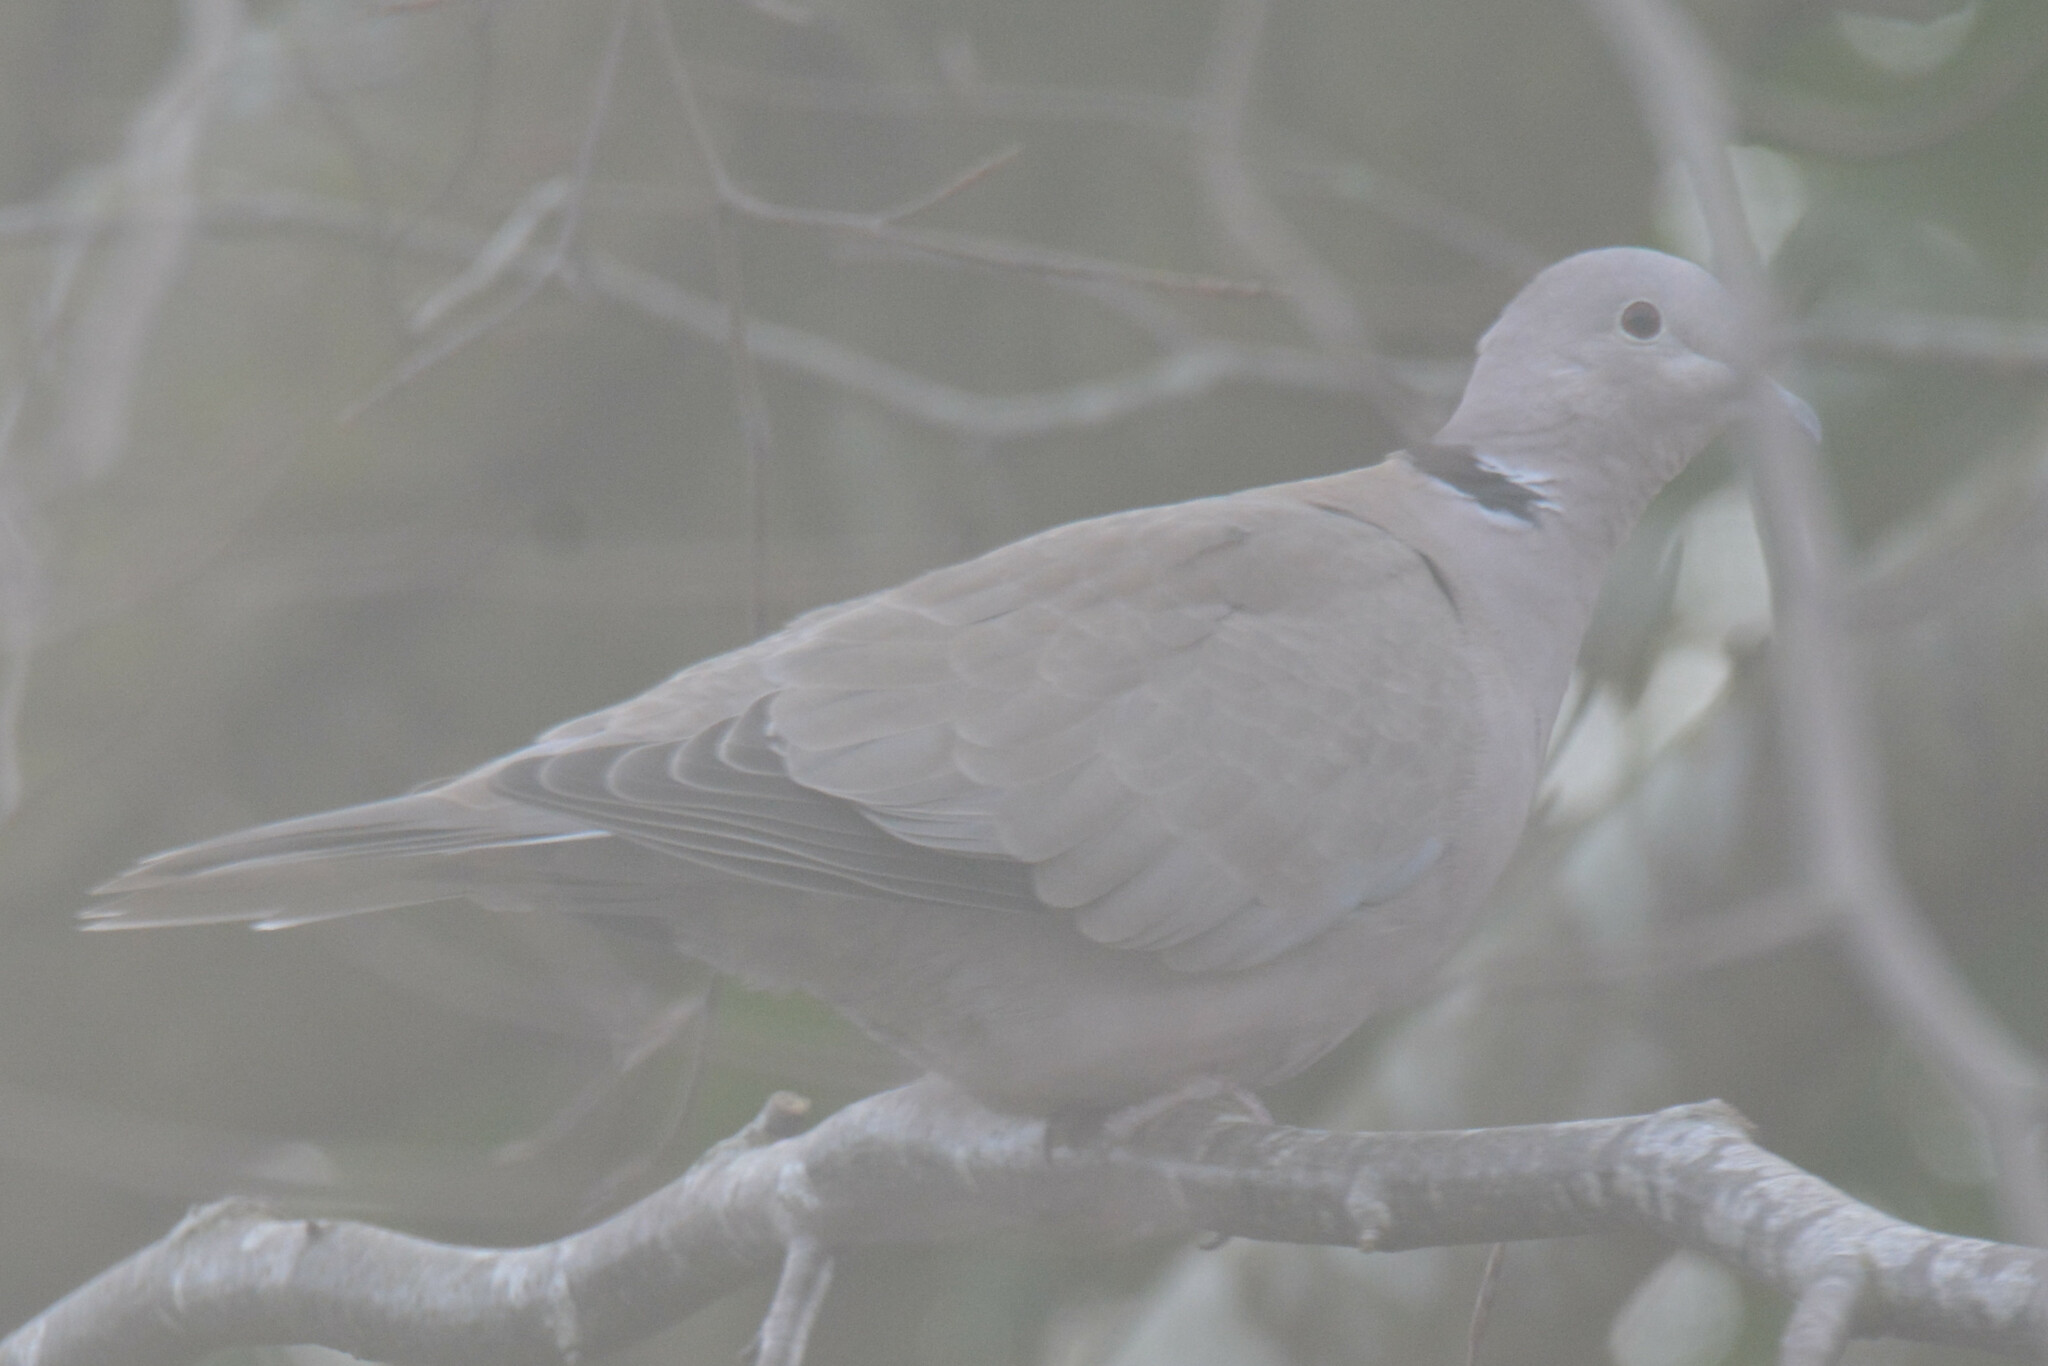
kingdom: Animalia
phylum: Chordata
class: Aves
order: Columbiformes
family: Columbidae
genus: Streptopelia
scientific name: Streptopelia decaocto
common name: Eurasian collared dove
